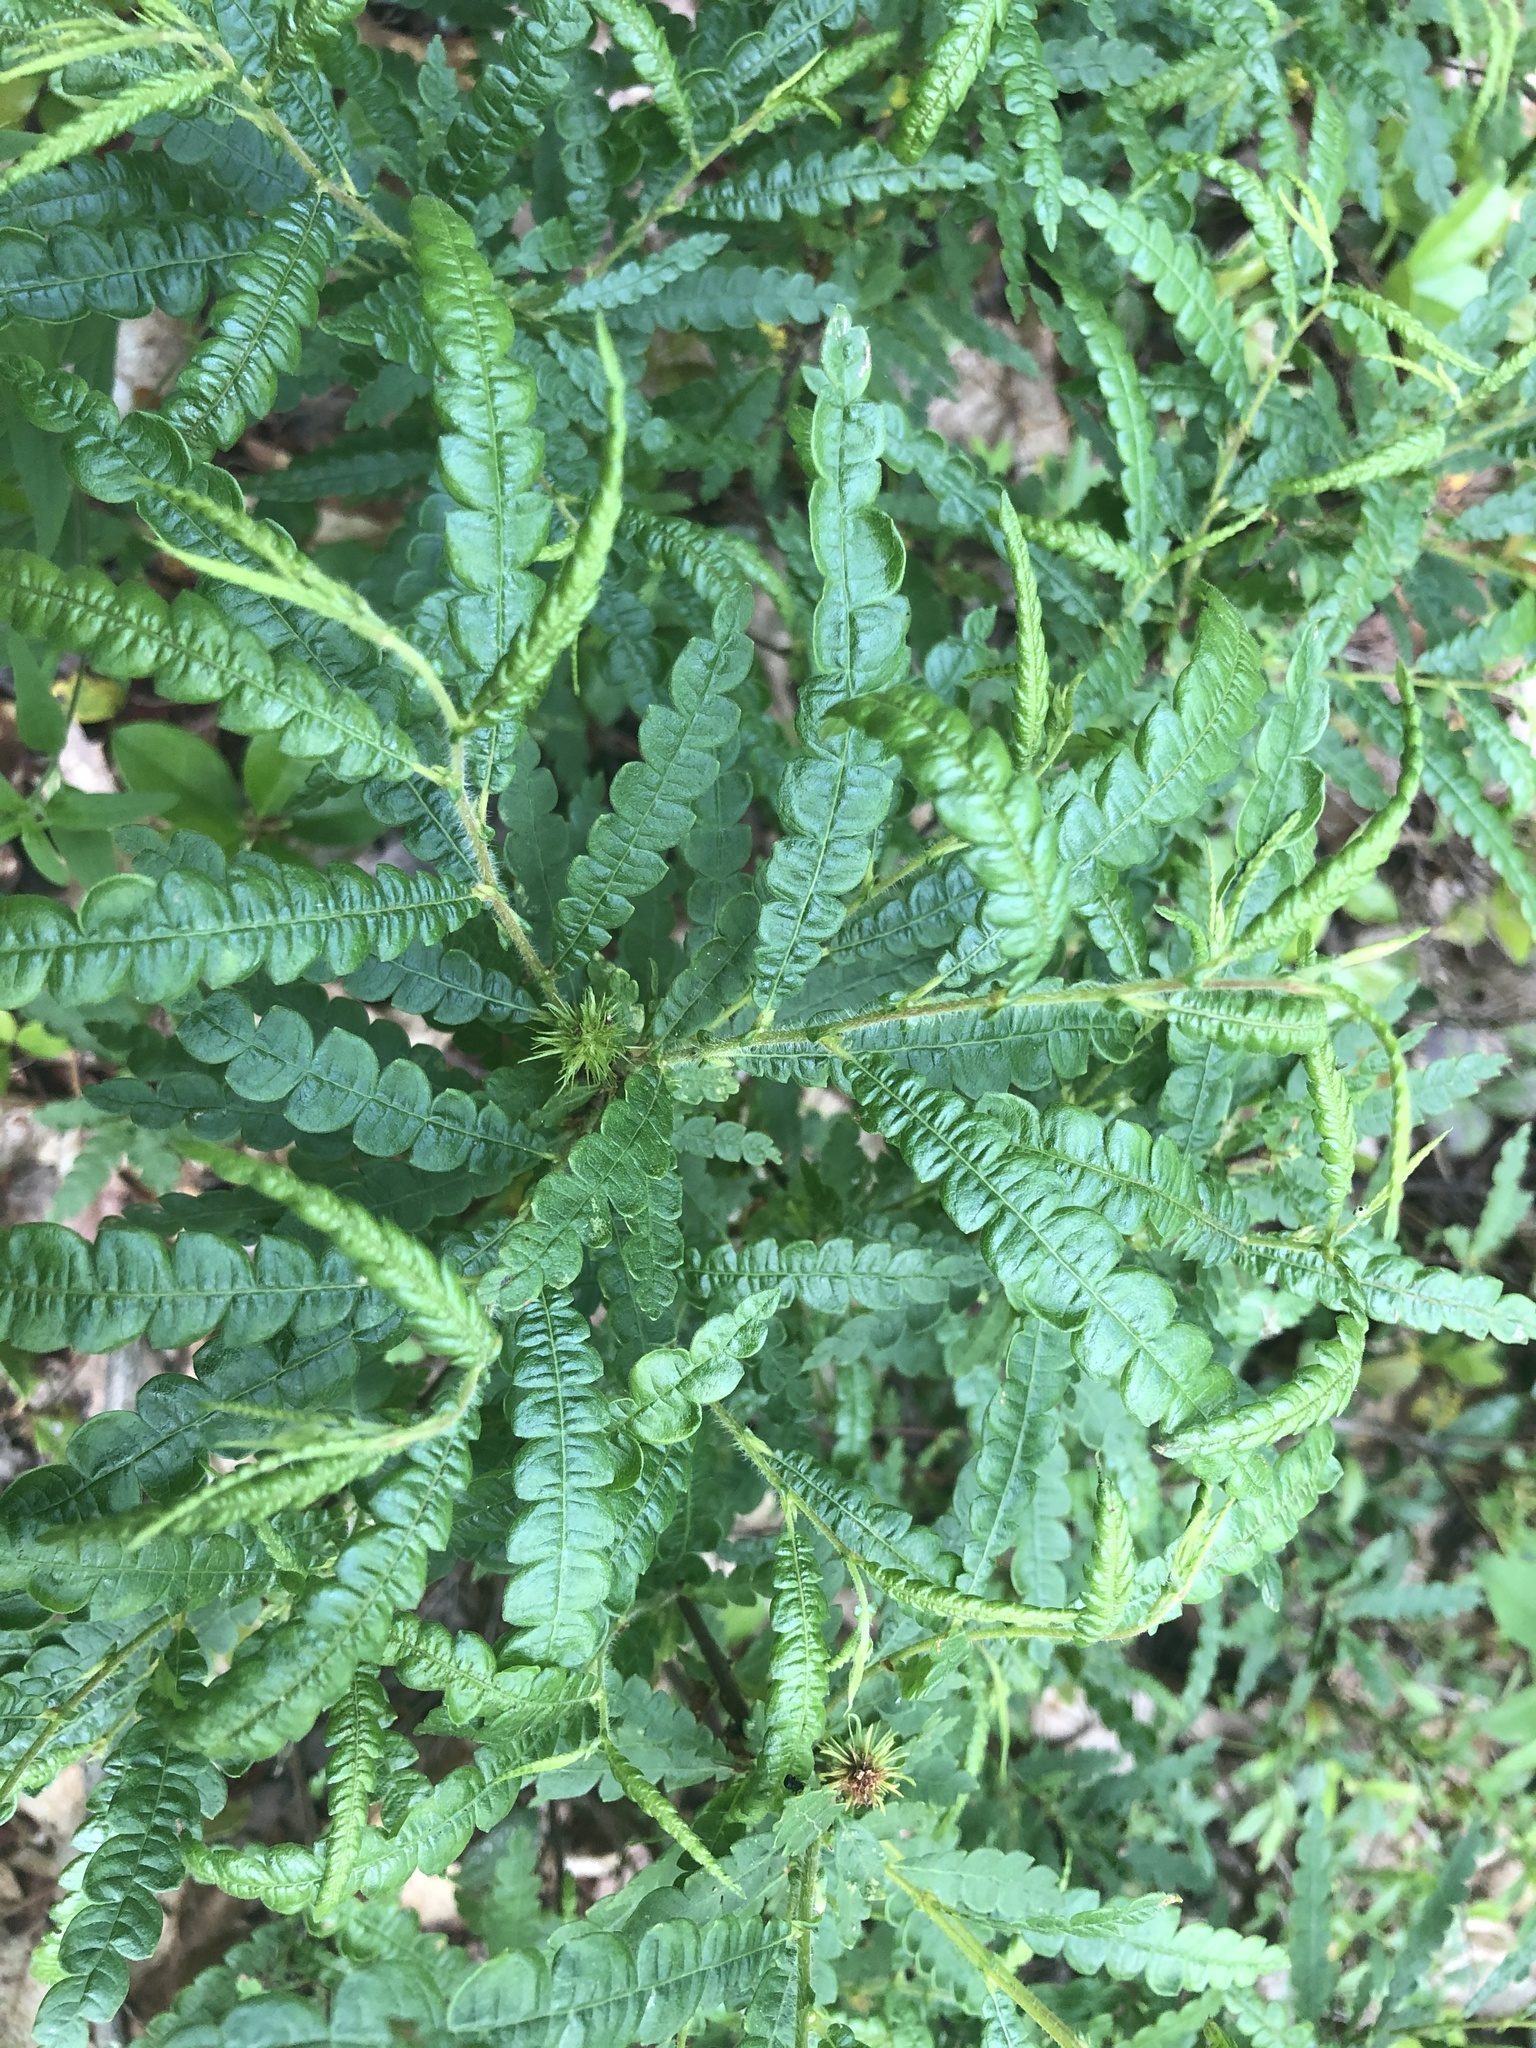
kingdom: Plantae
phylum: Tracheophyta
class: Magnoliopsida
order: Fagales
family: Myricaceae
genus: Comptonia
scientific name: Comptonia peregrina
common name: Sweet-fern
